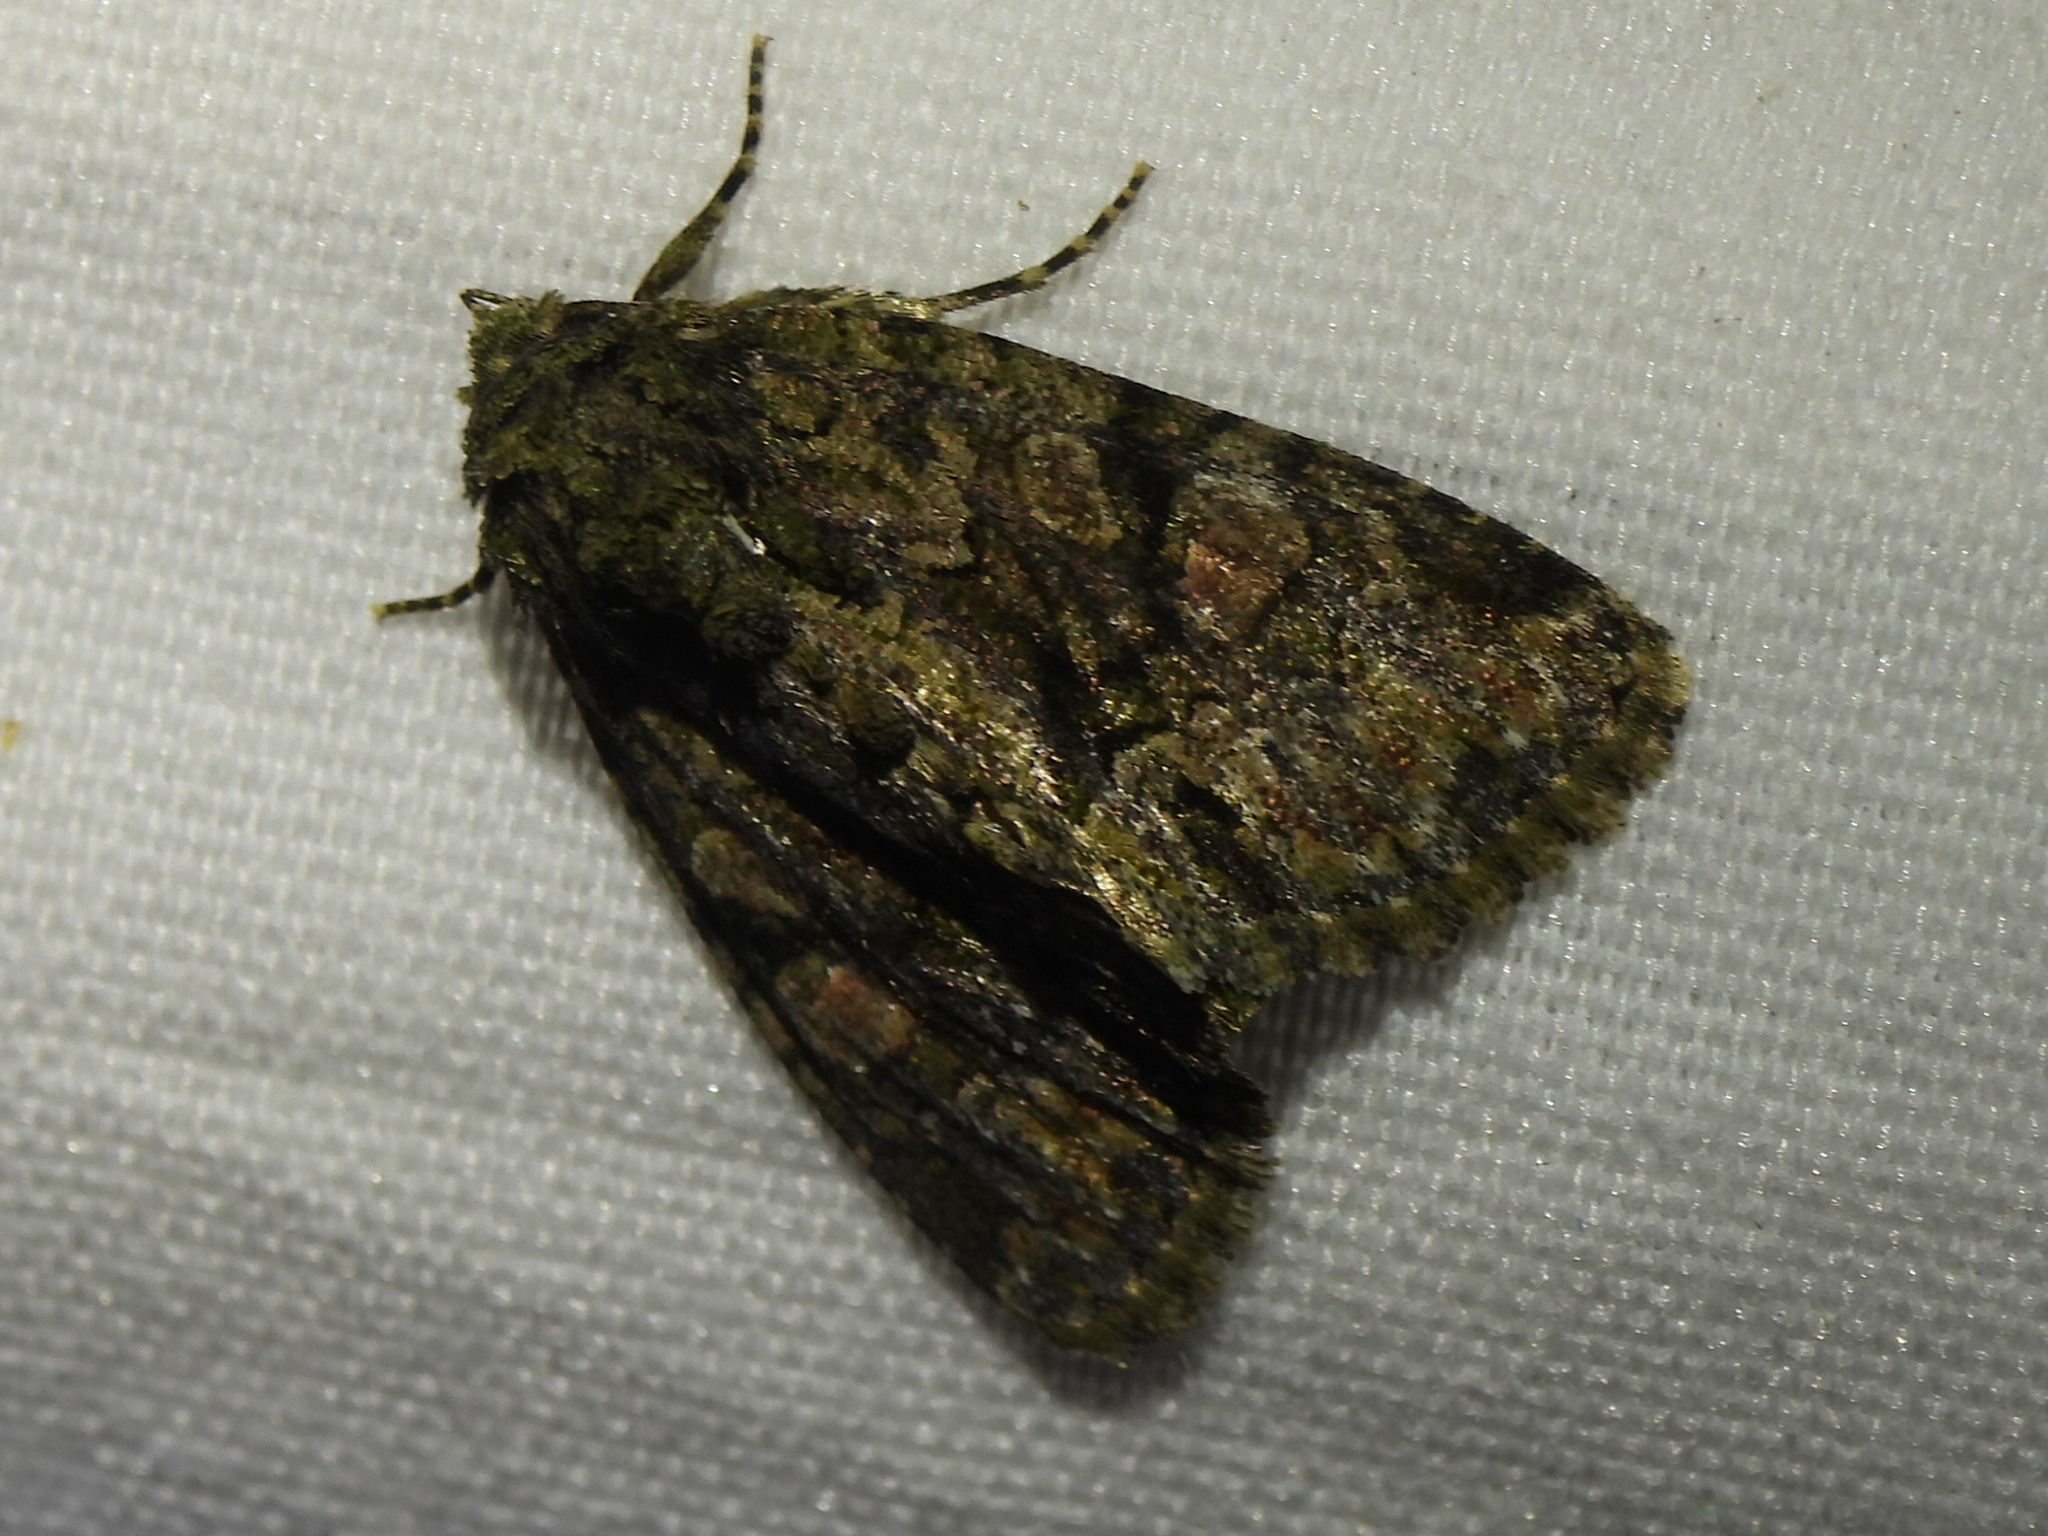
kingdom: Animalia
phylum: Arthropoda
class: Insecta
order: Lepidoptera
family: Noctuidae
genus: Phosphila
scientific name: Phosphila miselioides
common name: Spotted phosphila moth
